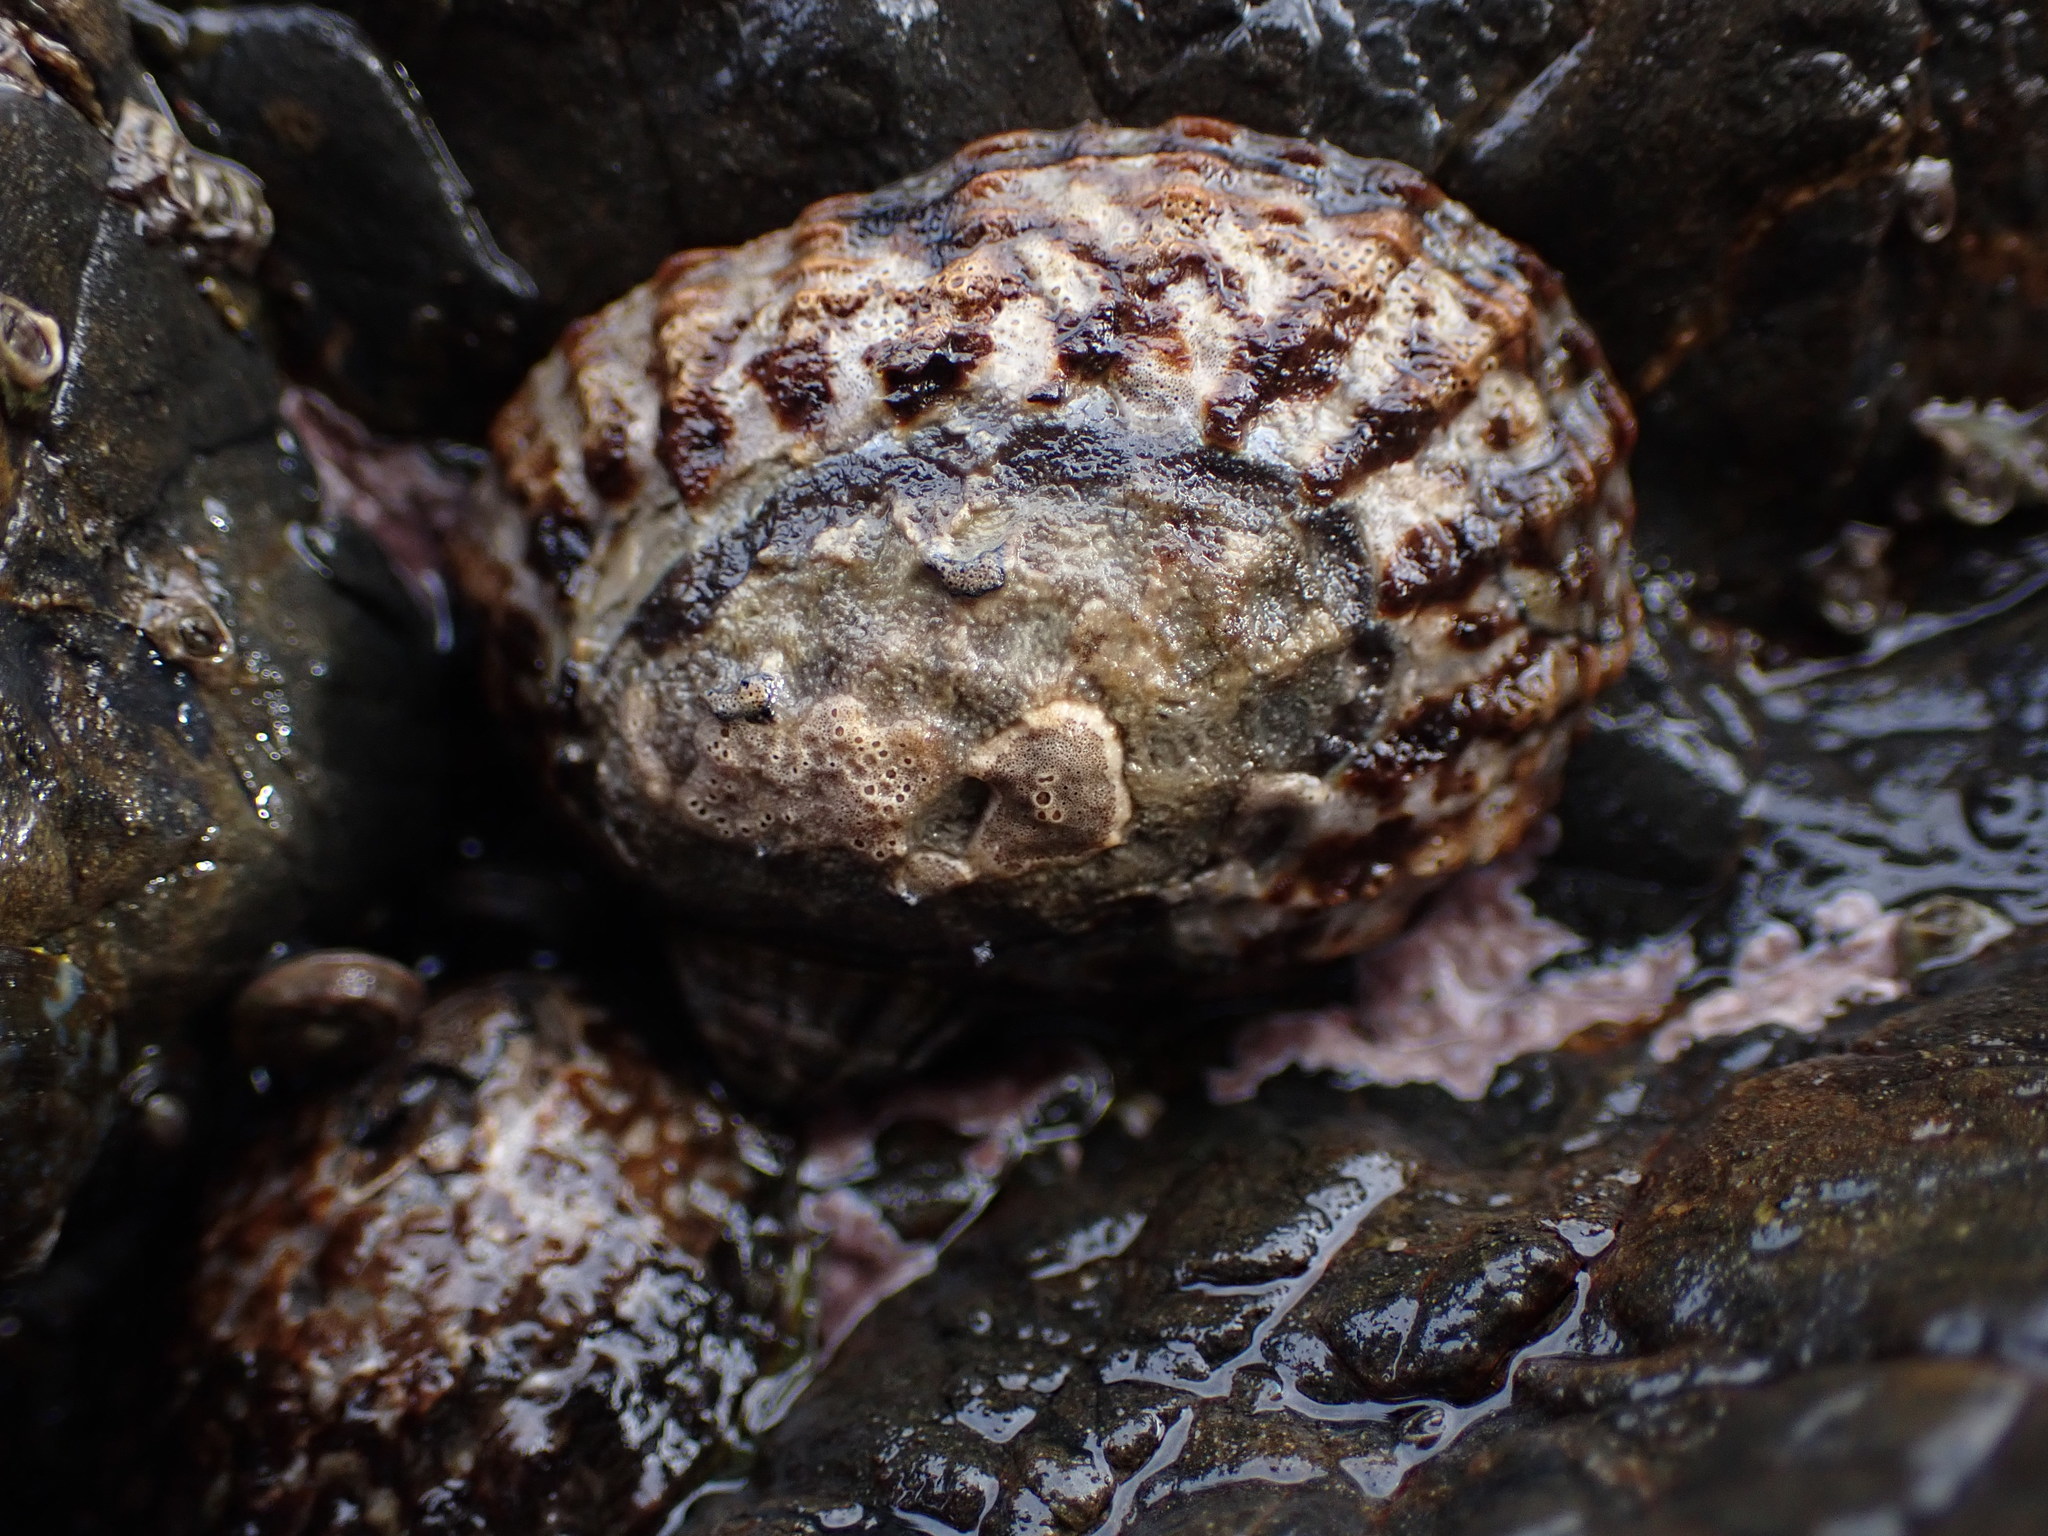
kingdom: Animalia
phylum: Mollusca
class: Gastropoda
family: Nacellidae
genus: Cellana
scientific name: Cellana denticulata
